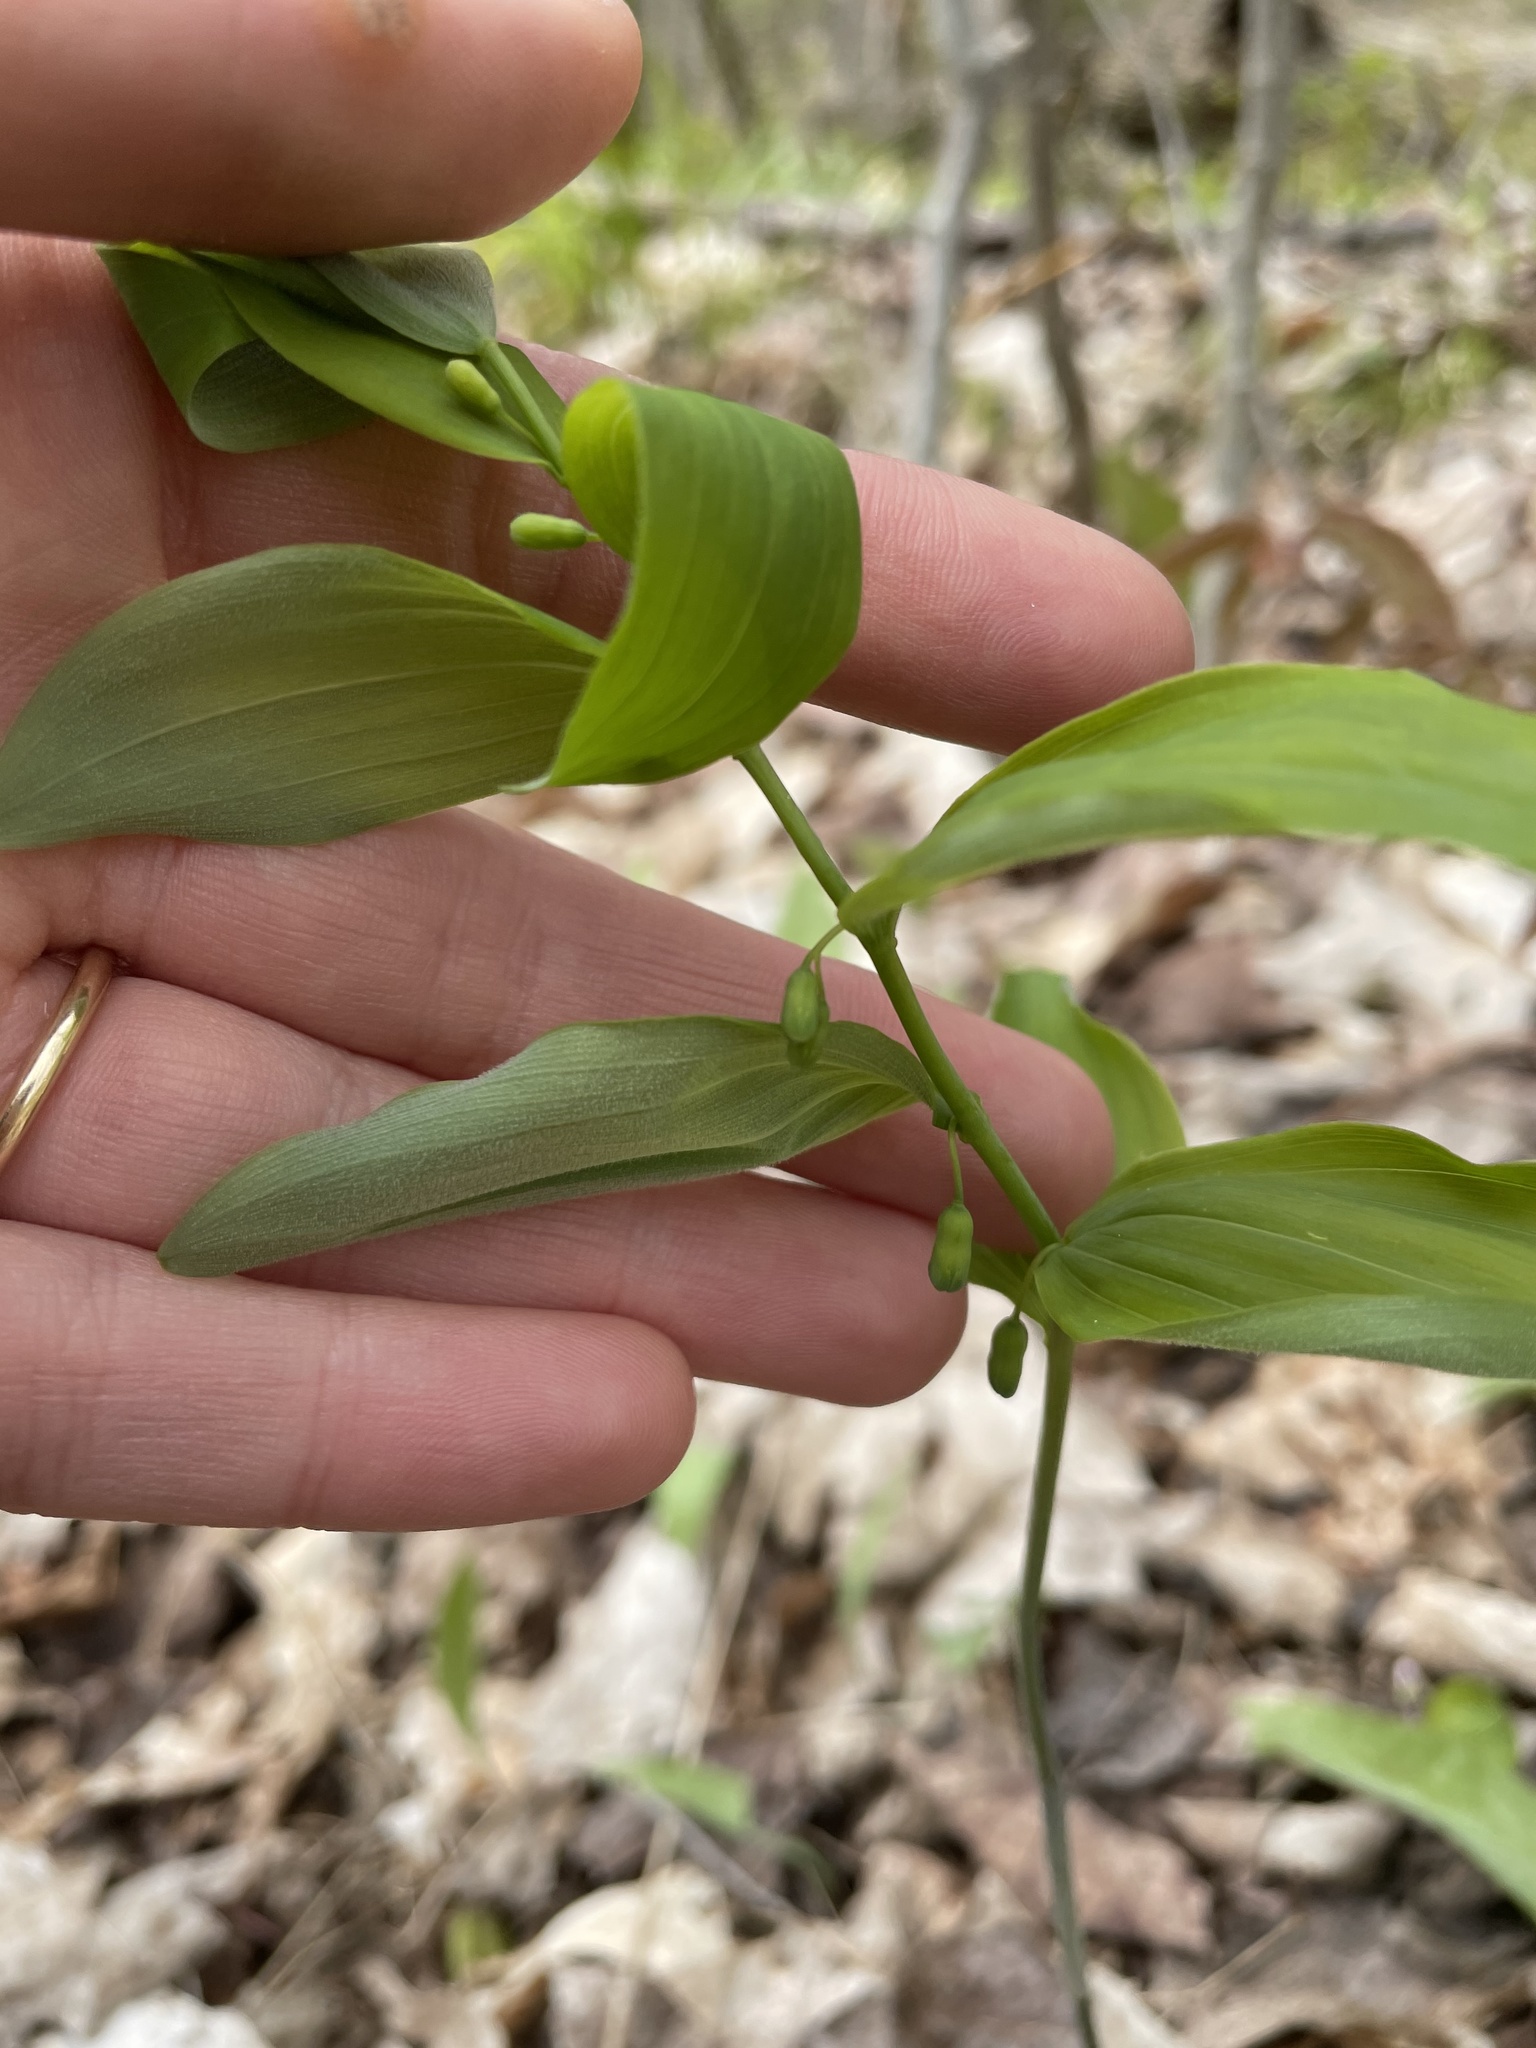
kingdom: Plantae
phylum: Tracheophyta
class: Liliopsida
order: Asparagales
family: Asparagaceae
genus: Polygonatum
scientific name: Polygonatum pubescens
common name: Downy solomon's seal
